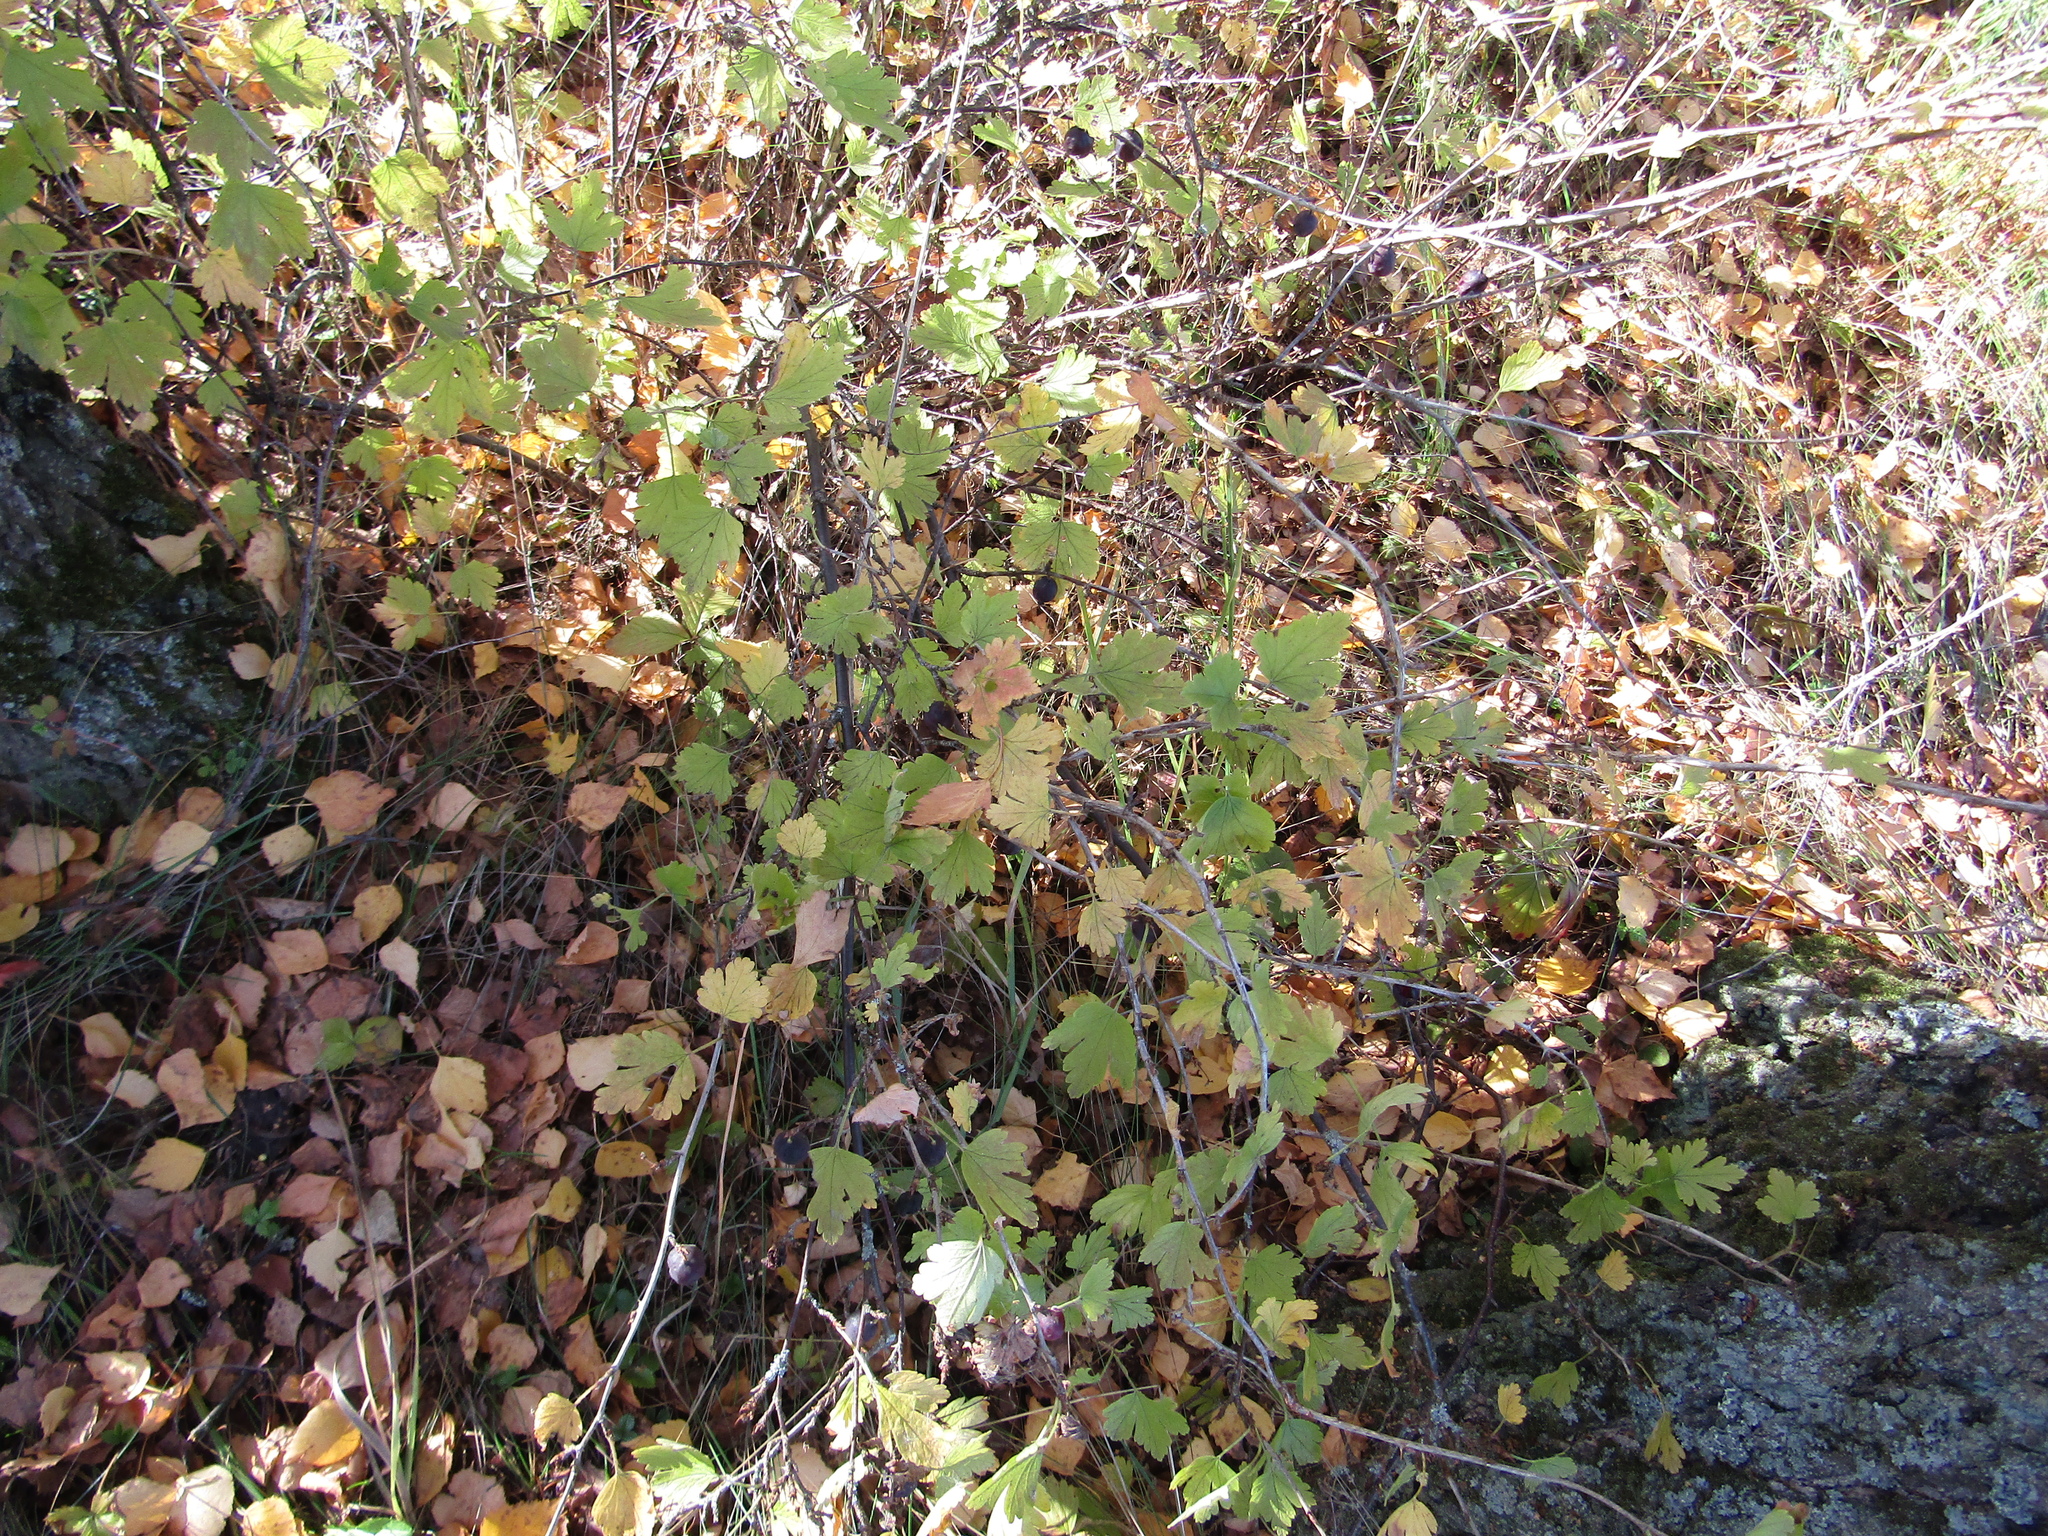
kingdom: Plantae
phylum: Tracheophyta
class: Magnoliopsida
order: Saxifragales
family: Grossulariaceae
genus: Ribes
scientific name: Ribes uva-crispa
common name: Gooseberry
